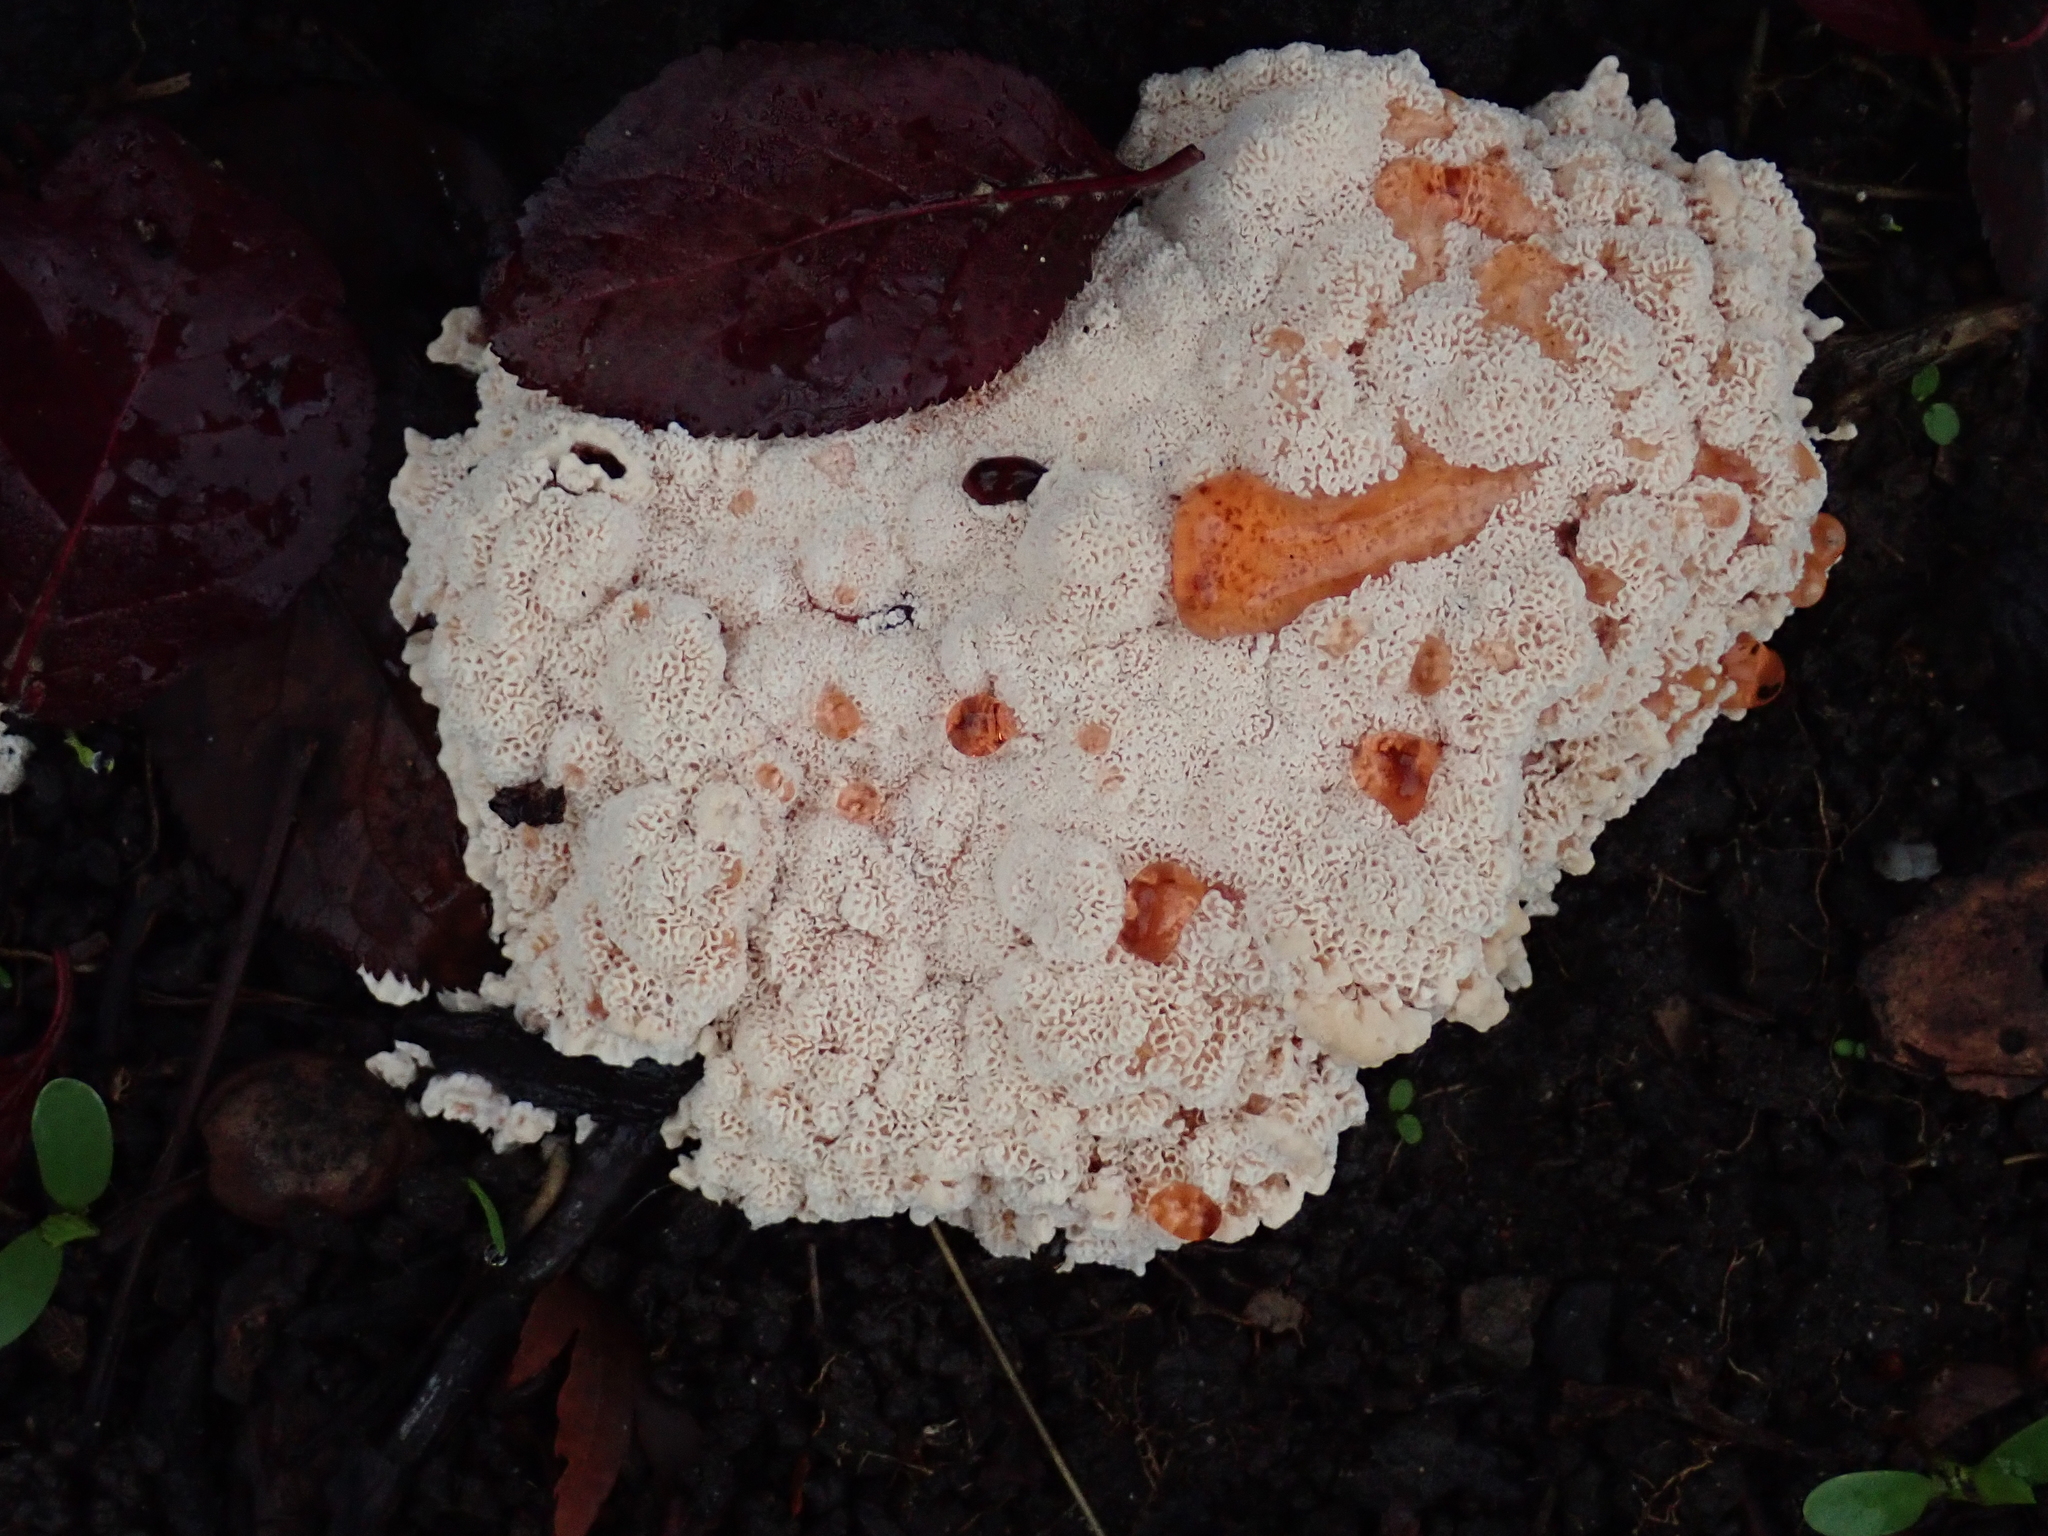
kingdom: Fungi
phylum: Basidiomycota
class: Agaricomycetes
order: Polyporales
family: Podoscyphaceae
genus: Abortiporus
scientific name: Abortiporus biennis
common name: Blushing rosette
